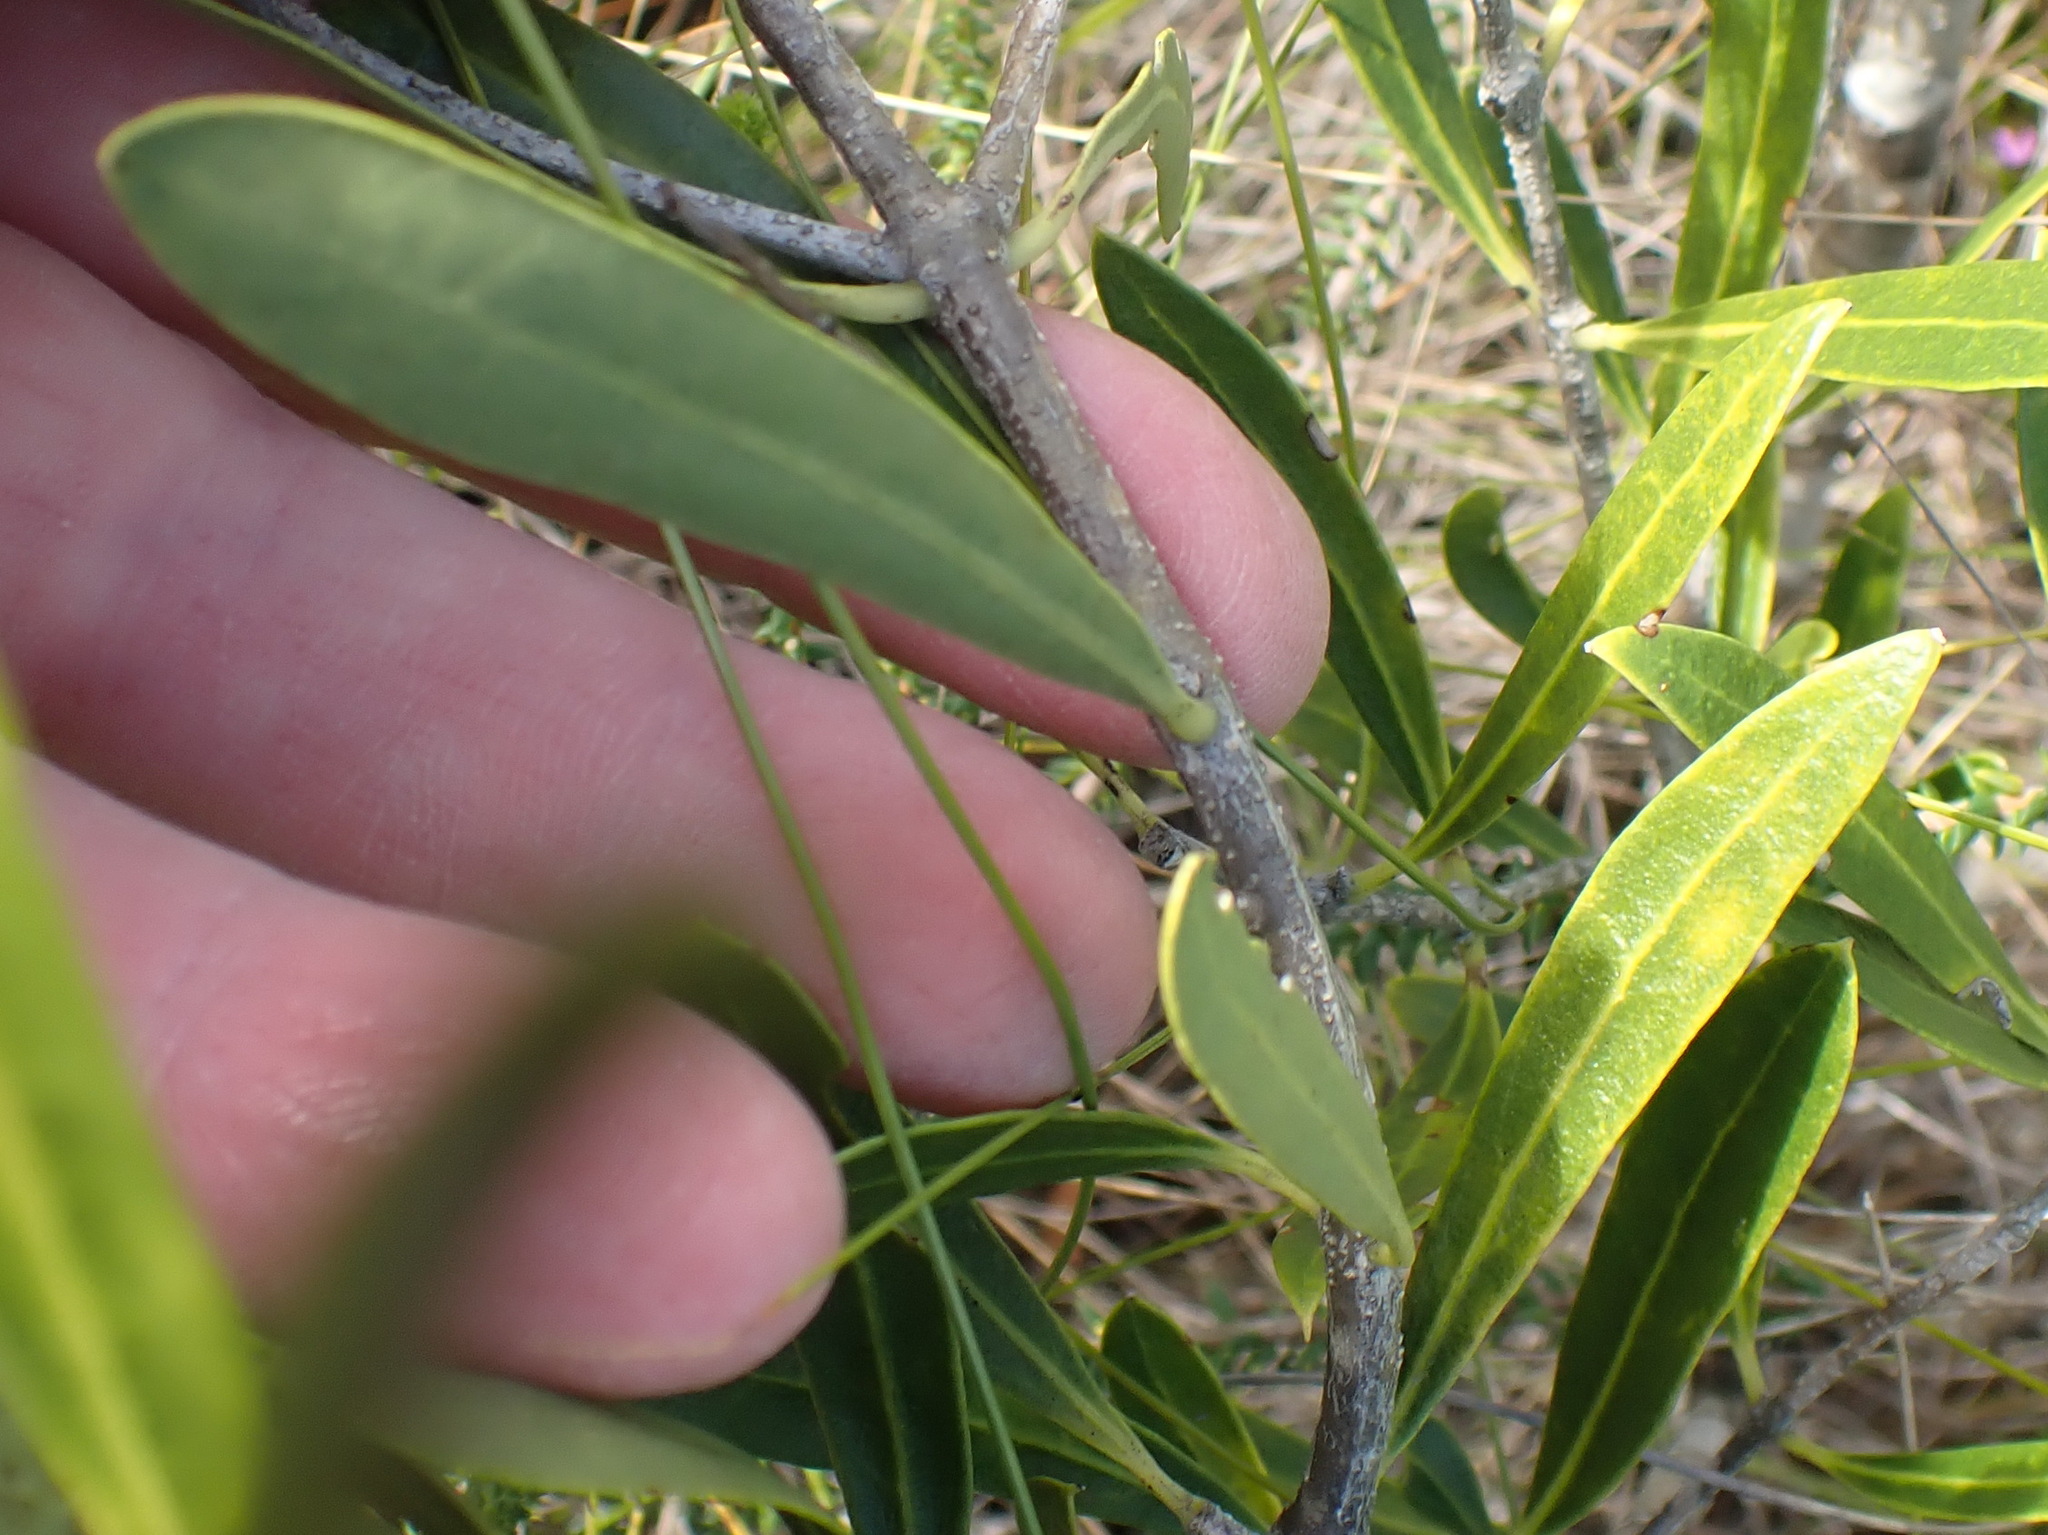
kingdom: Plantae
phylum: Tracheophyta
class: Magnoliopsida
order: Lamiales
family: Oleaceae
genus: Olea
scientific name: Olea exasperata
